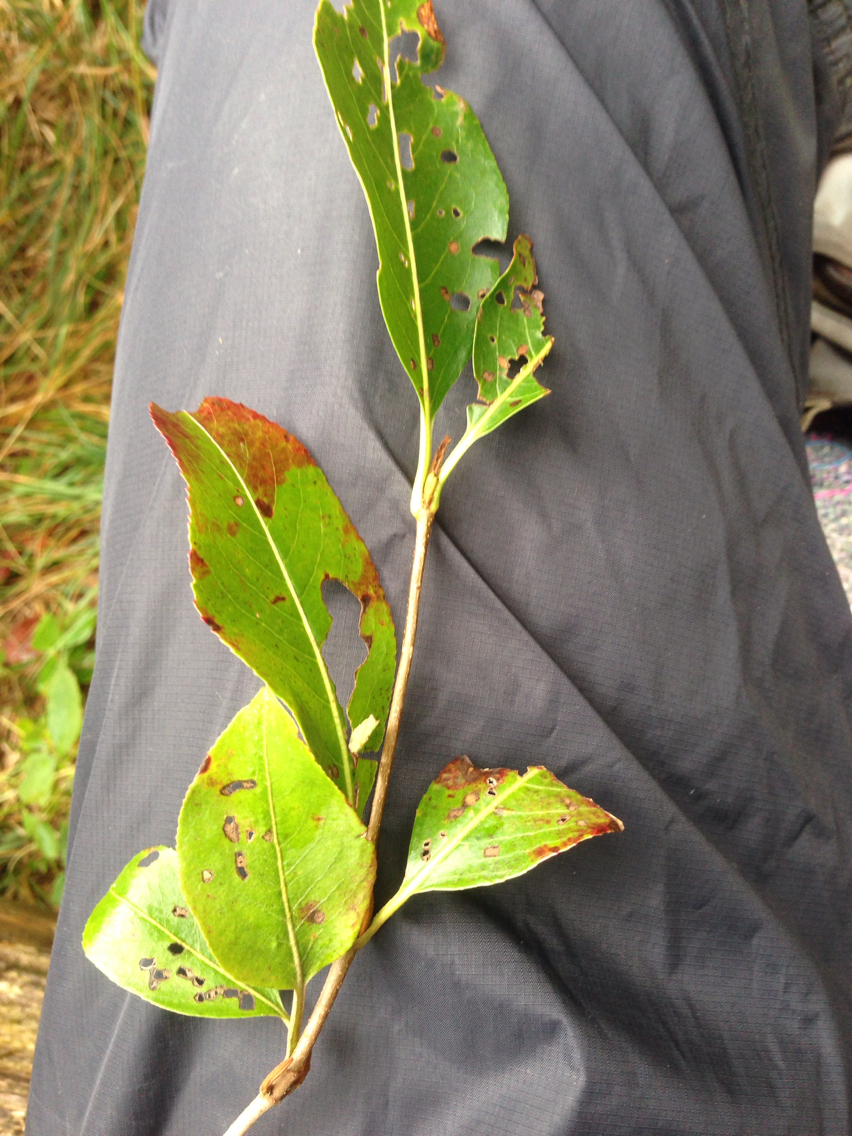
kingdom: Plantae
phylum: Tracheophyta
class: Magnoliopsida
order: Dipsacales
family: Viburnaceae
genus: Viburnum
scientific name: Viburnum cassinoides
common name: Swamp haw
